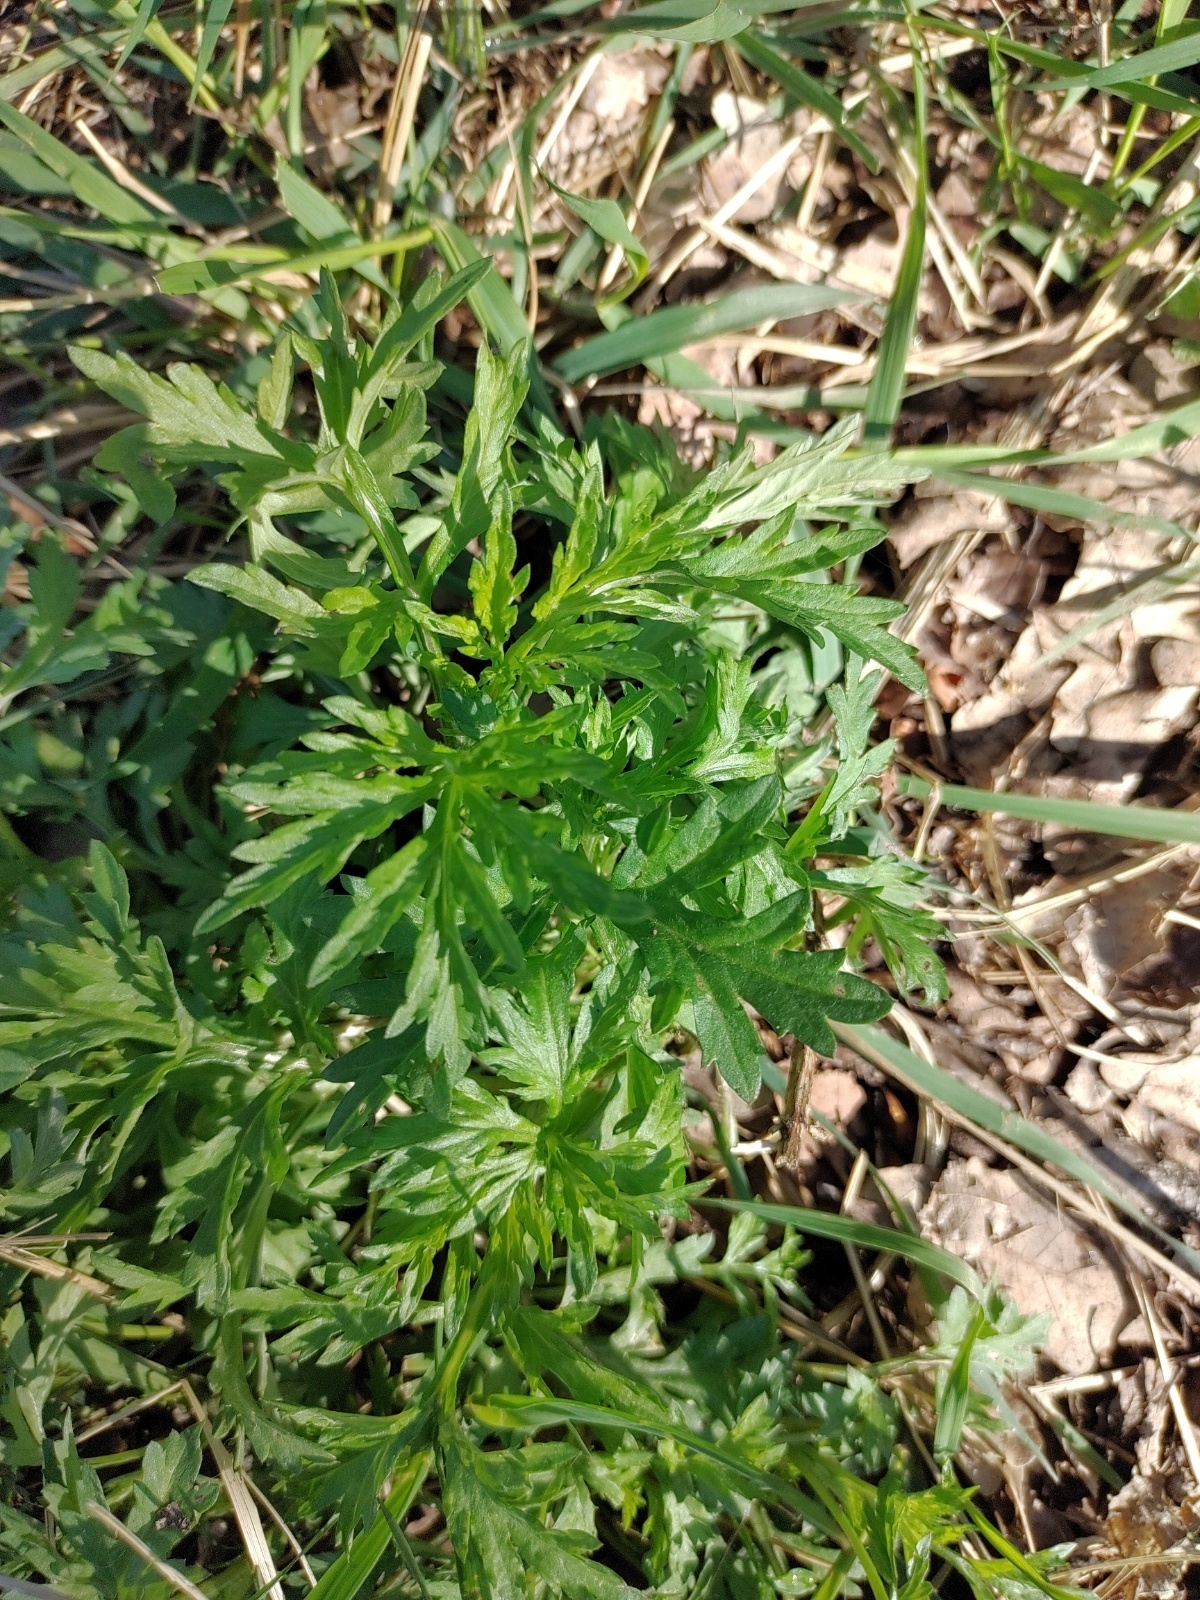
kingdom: Plantae
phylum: Tracheophyta
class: Magnoliopsida
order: Asterales
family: Asteraceae
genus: Artemisia
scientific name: Artemisia vulgaris
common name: Mugwort
